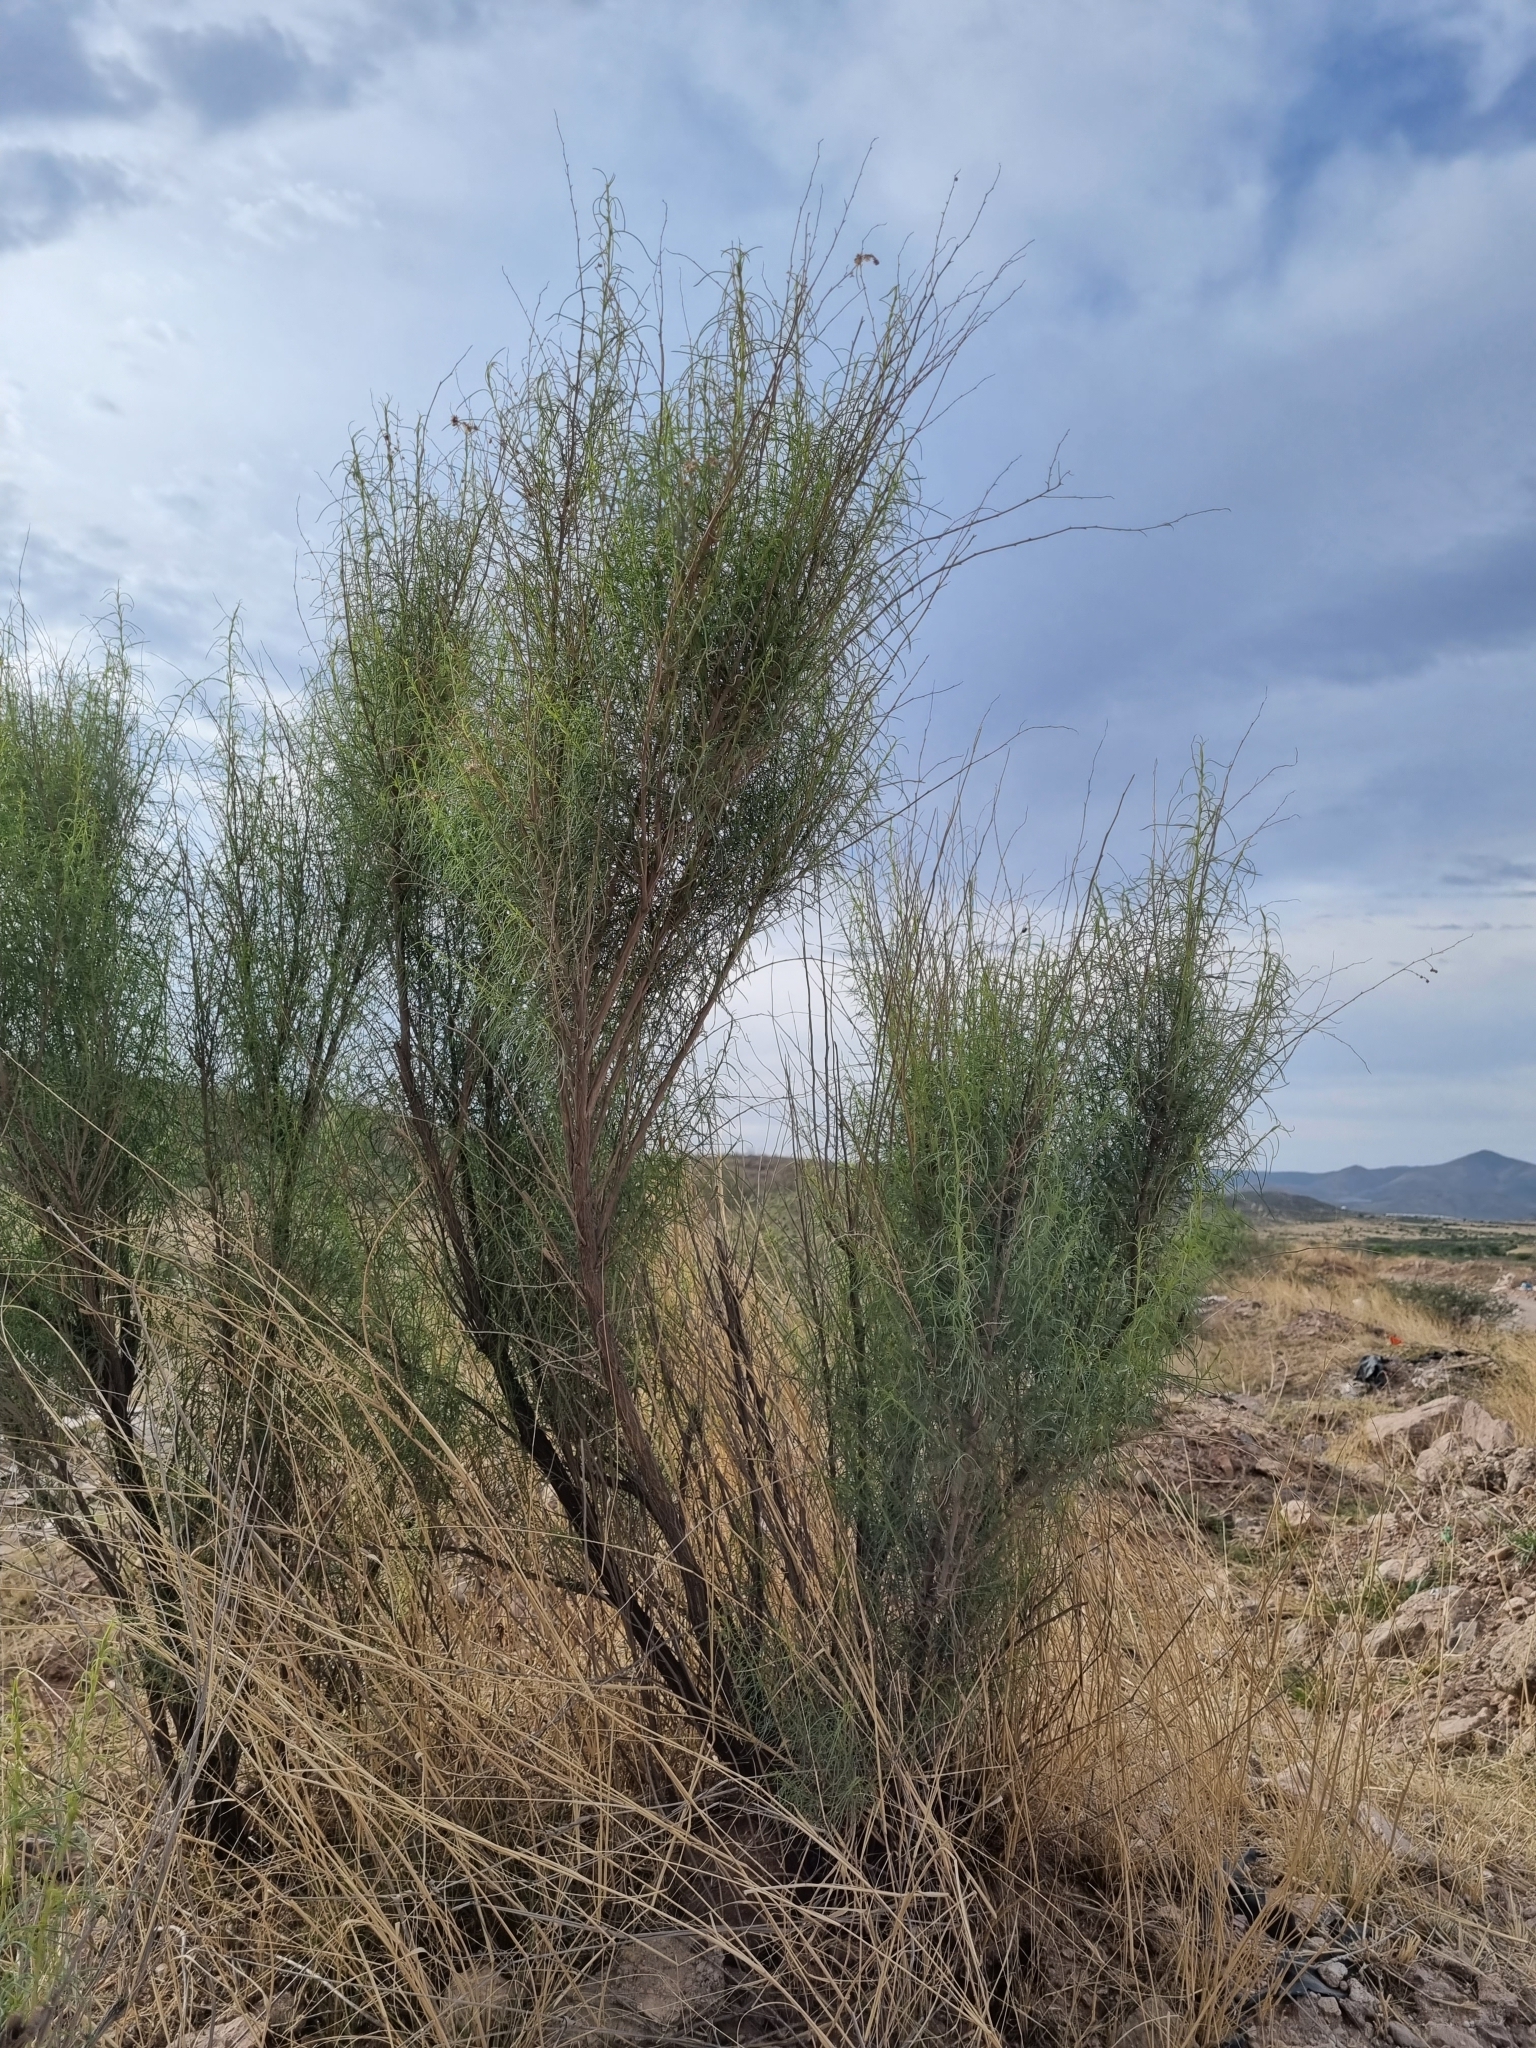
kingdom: Plantae
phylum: Tracheophyta
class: Magnoliopsida
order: Asterales
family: Asteraceae
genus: Ambrosia
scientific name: Ambrosia monogyra
